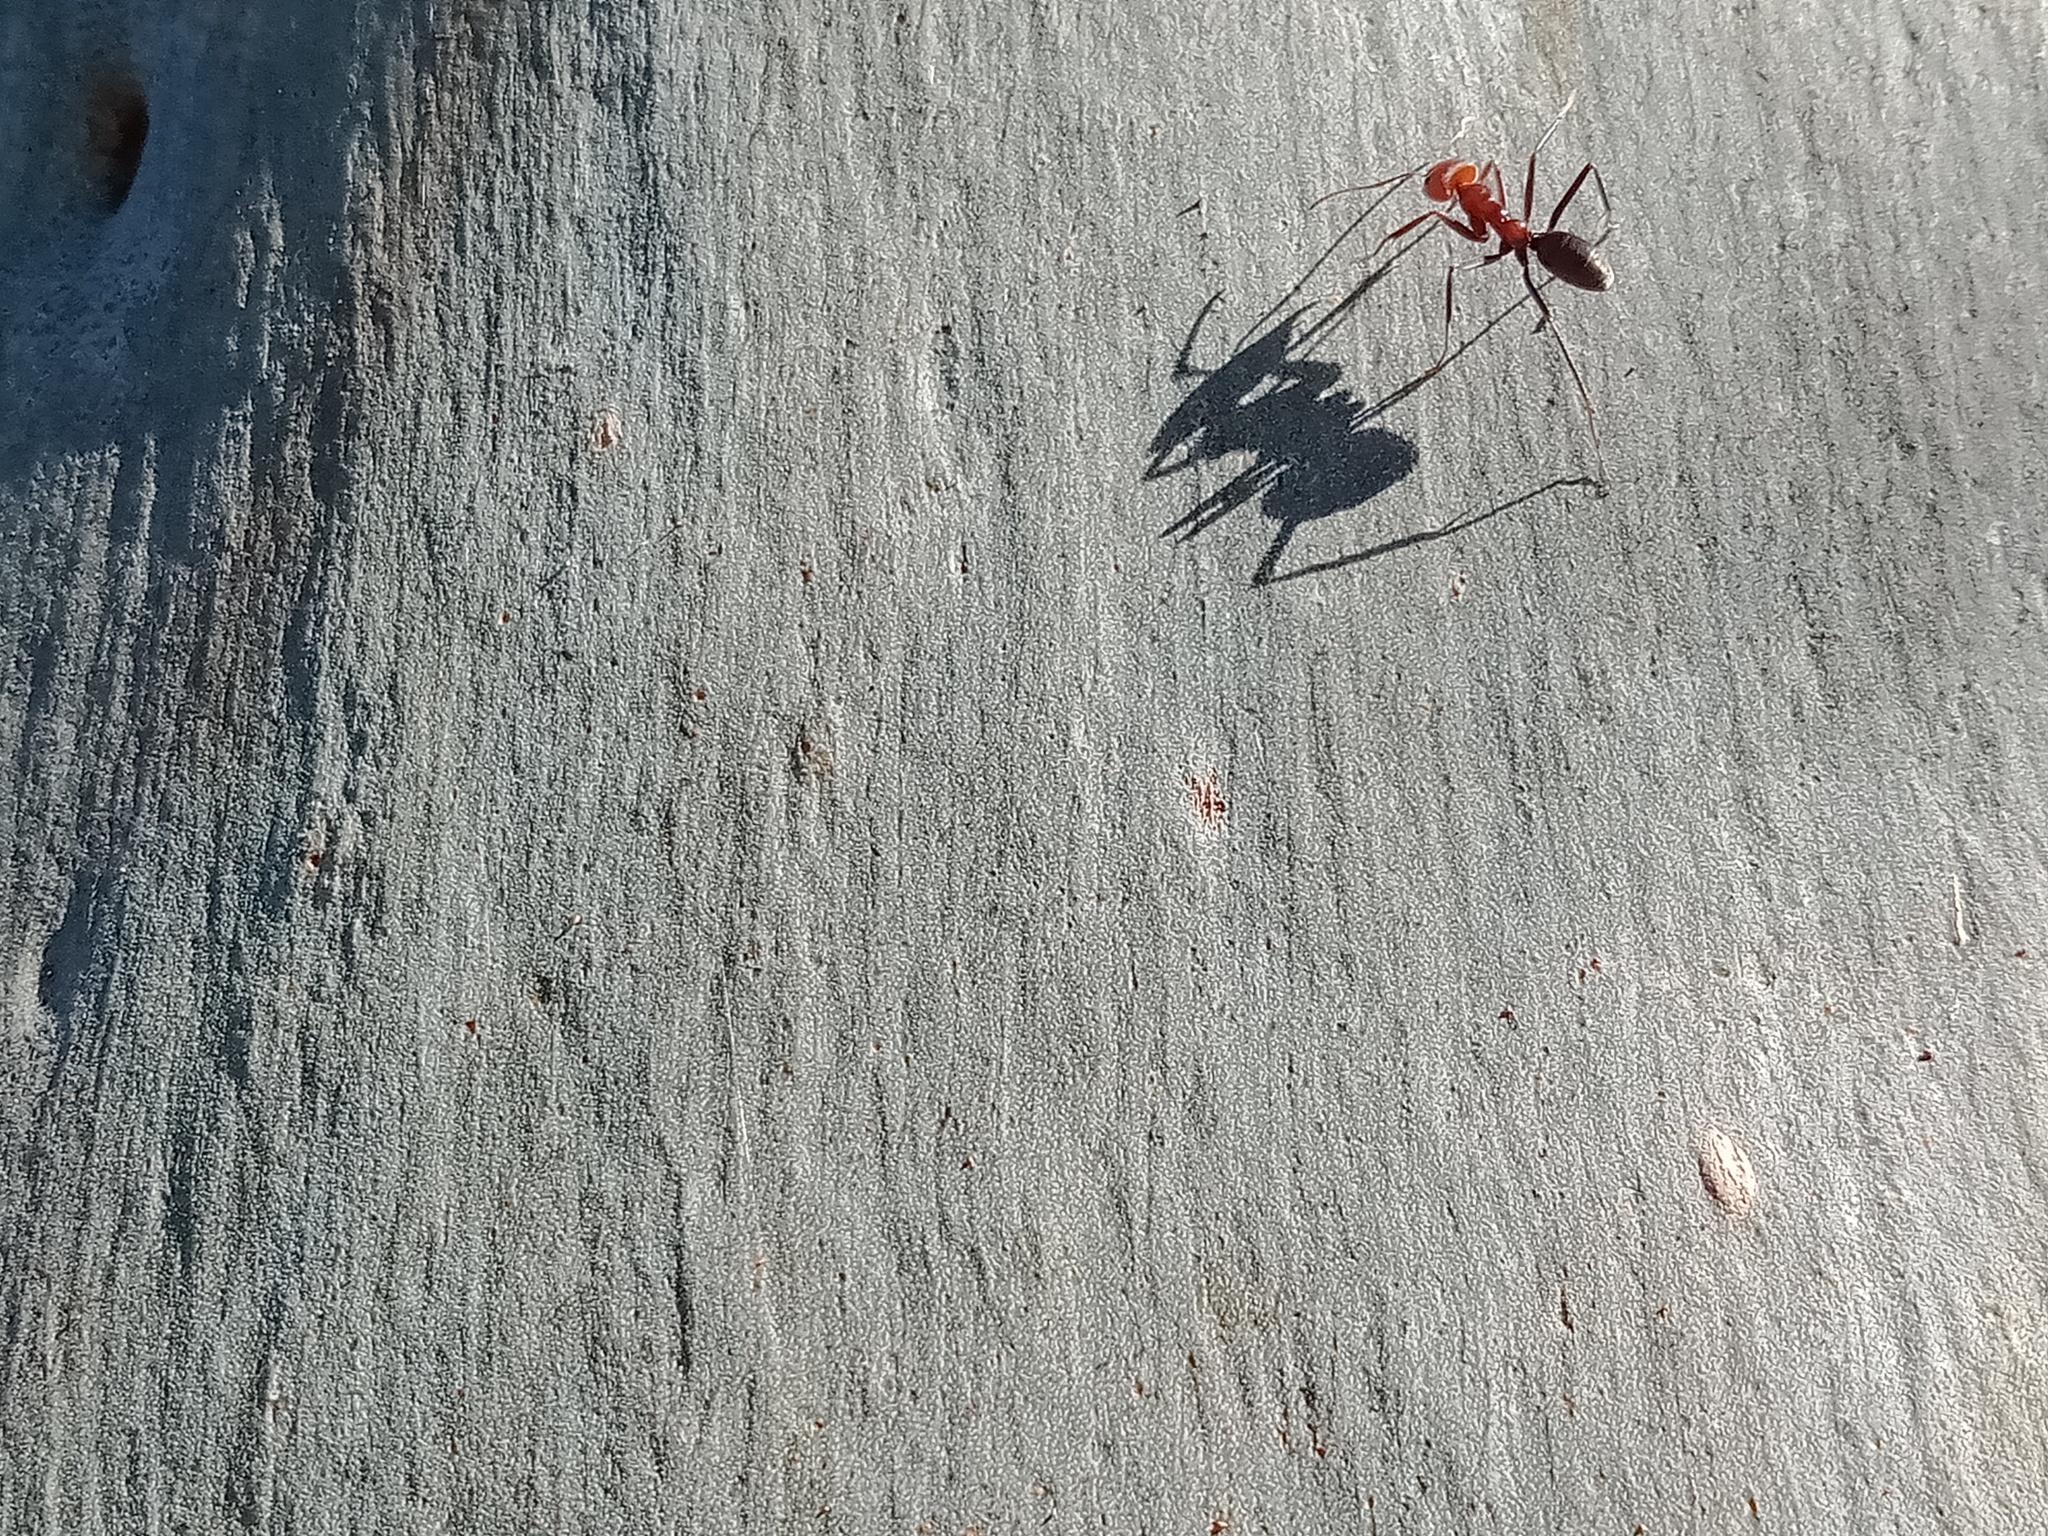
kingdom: Animalia
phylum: Arthropoda
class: Insecta
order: Hymenoptera
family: Formicidae
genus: Iridomyrmex
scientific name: Iridomyrmex purpureus
